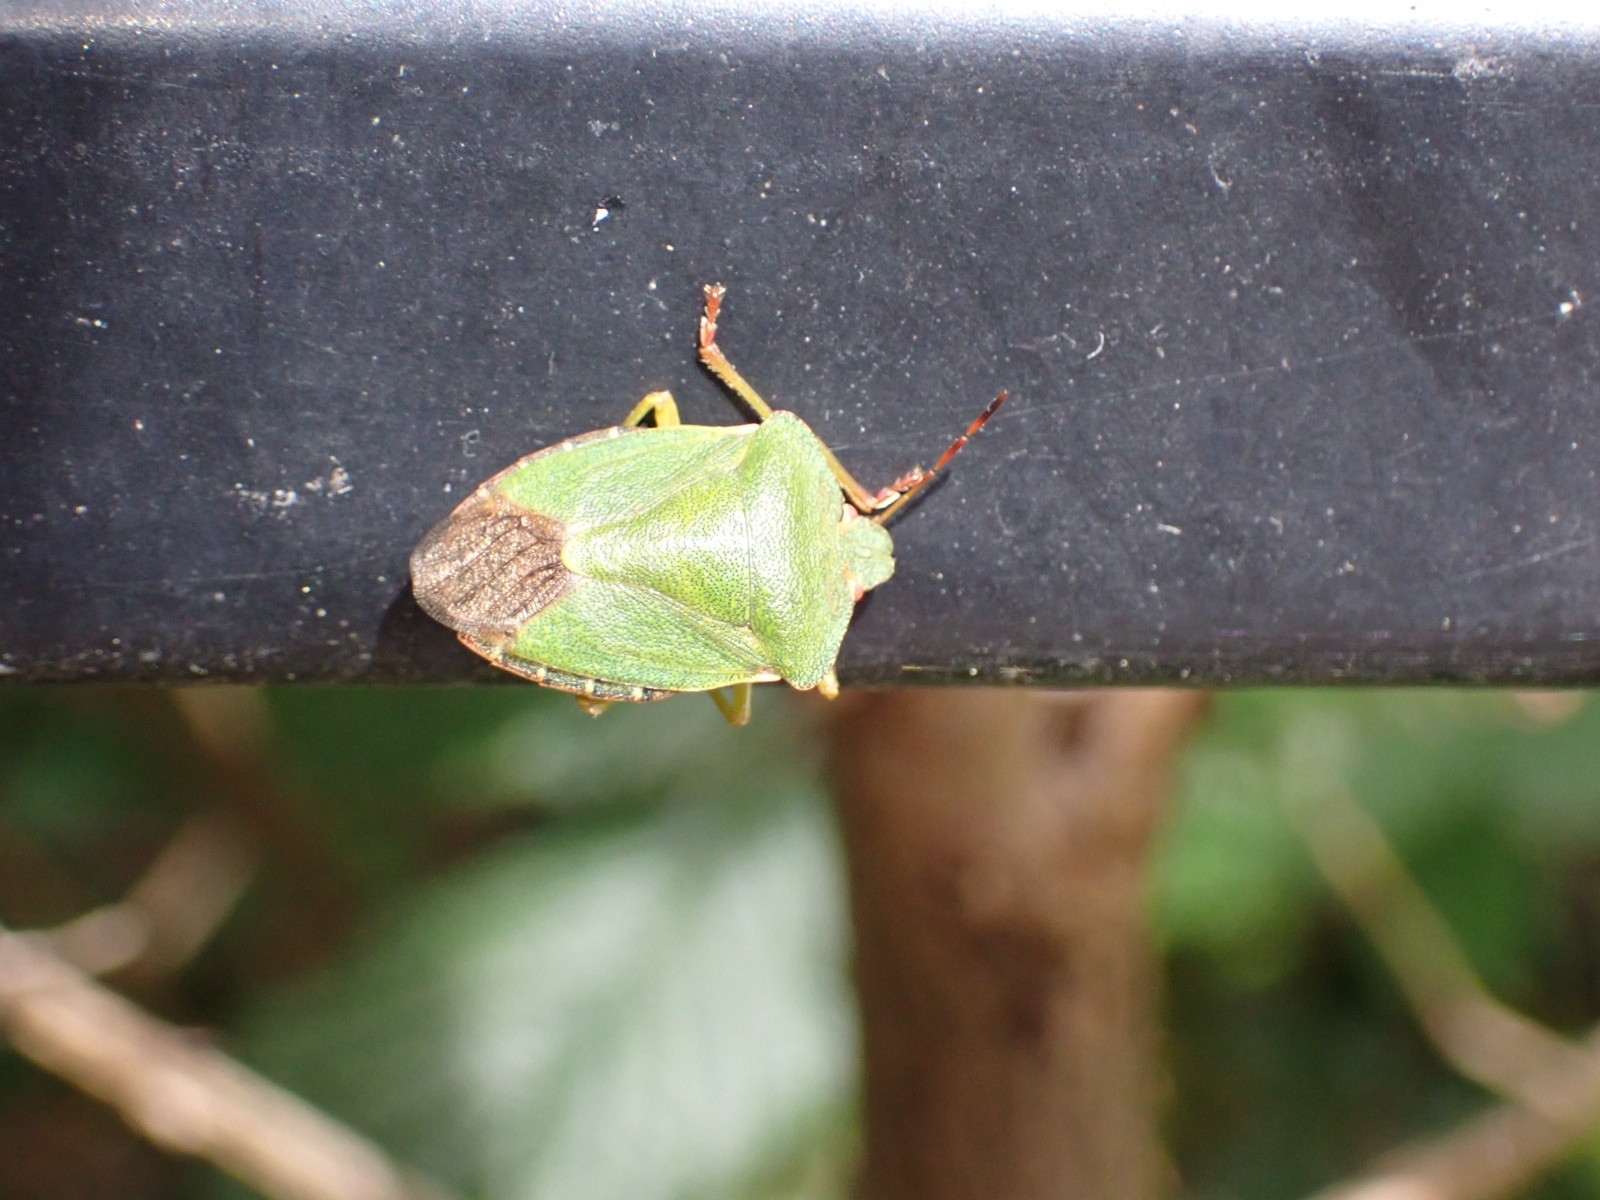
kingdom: Animalia
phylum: Arthropoda
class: Insecta
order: Hemiptera
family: Pentatomidae
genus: Palomena
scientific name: Palomena prasina
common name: Green shieldbug
